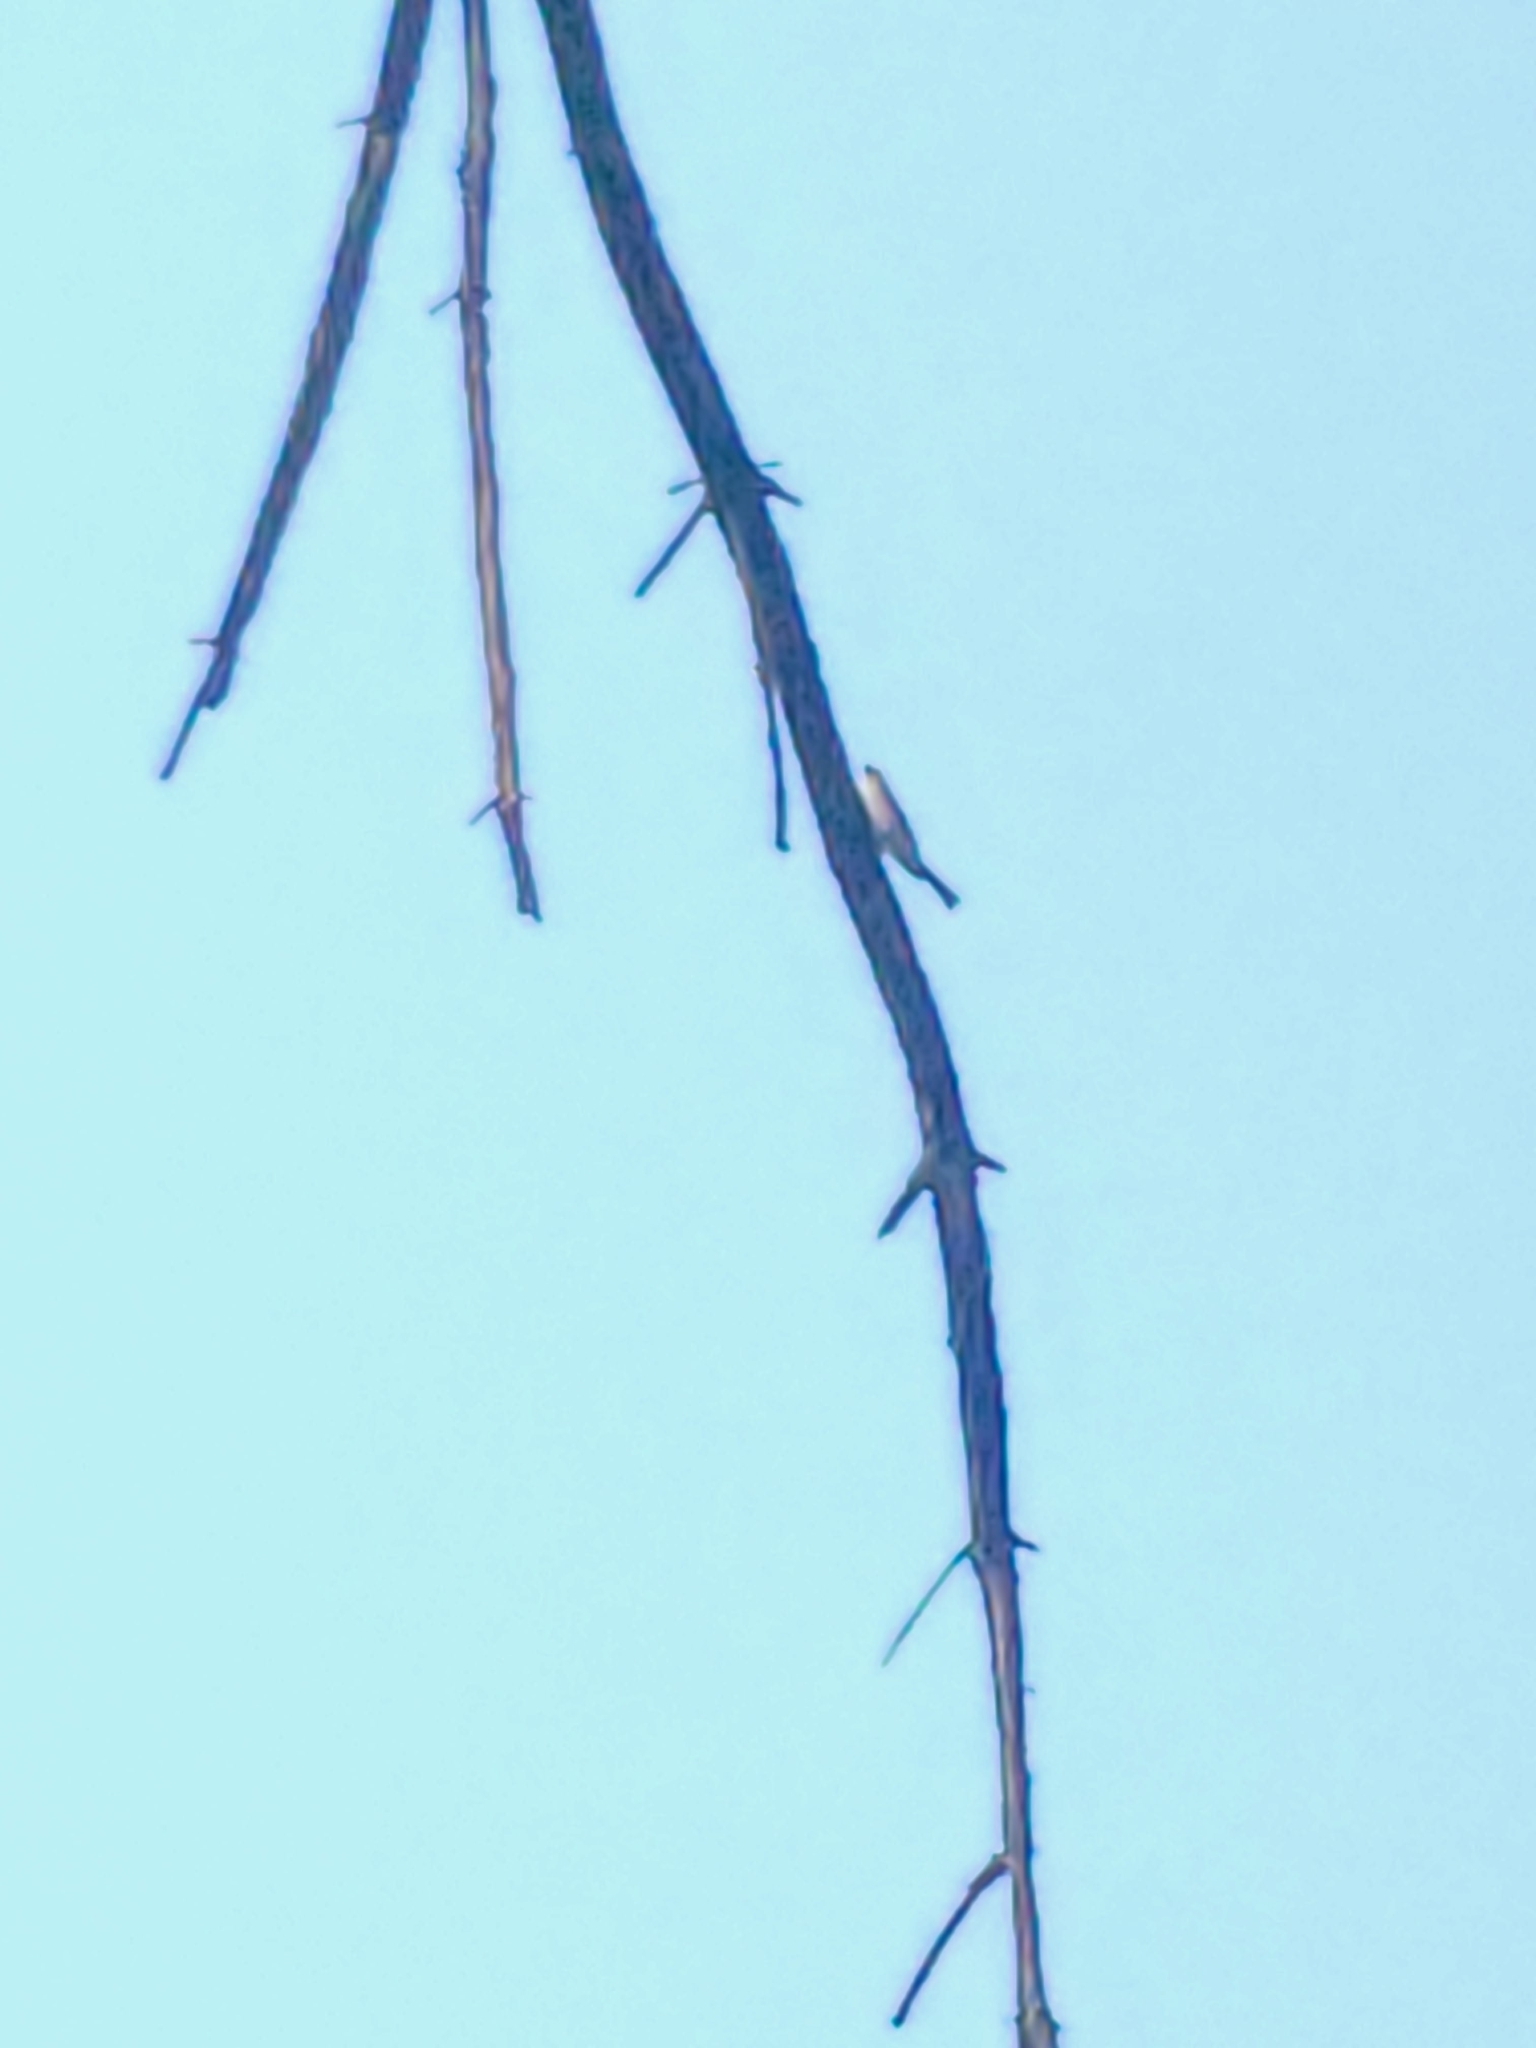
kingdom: Animalia
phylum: Chordata
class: Aves
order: Passeriformes
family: Passerellidae
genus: Spizella
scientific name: Spizella passerina
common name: Chipping sparrow
